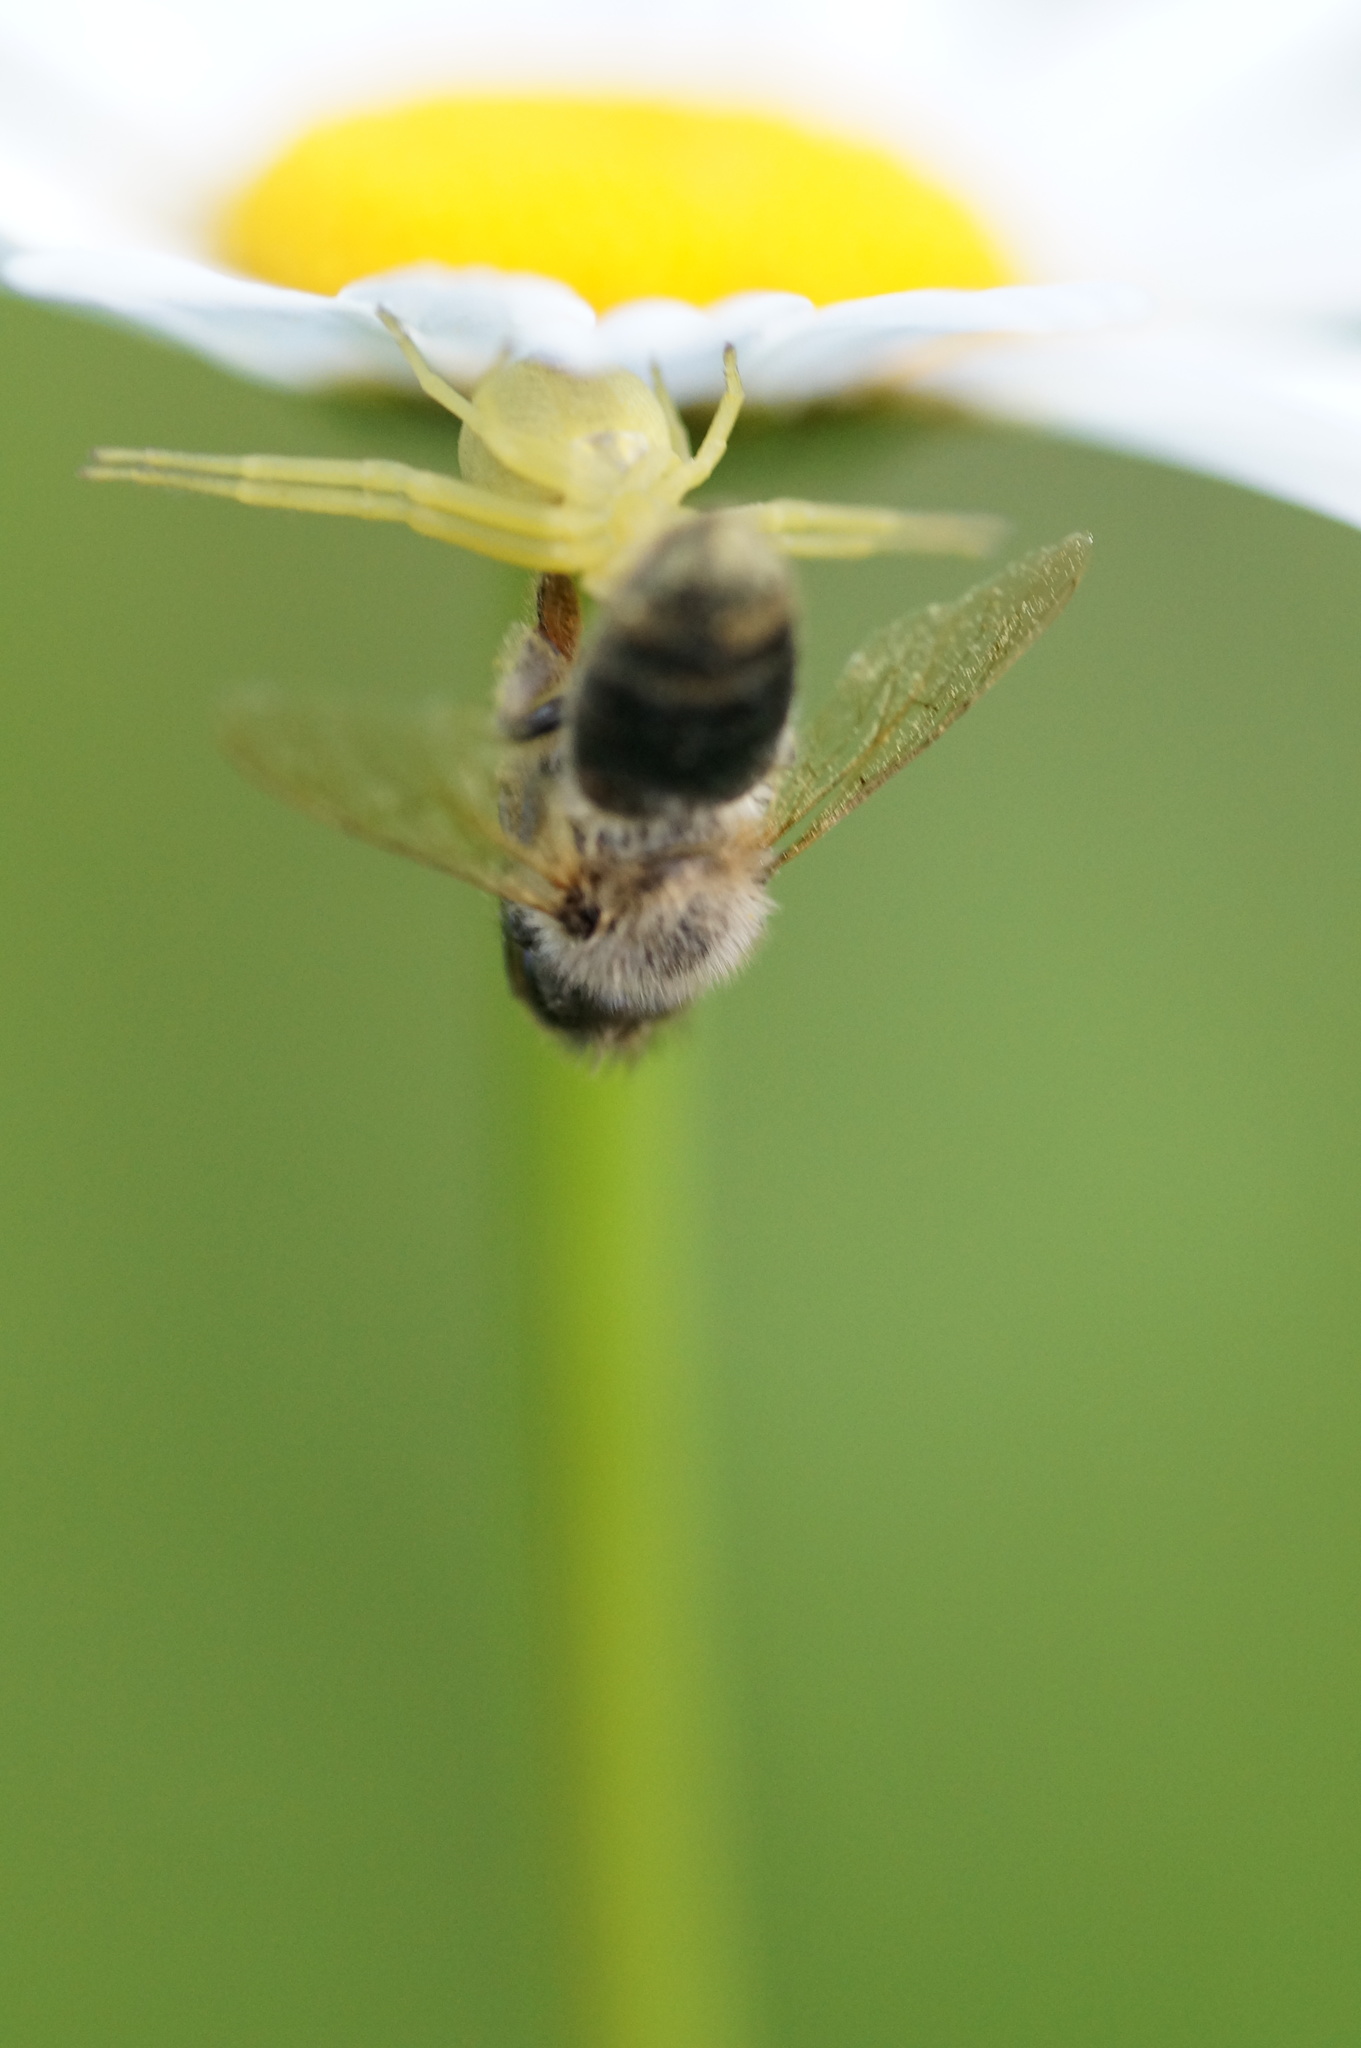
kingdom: Animalia
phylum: Arthropoda
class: Insecta
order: Hymenoptera
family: Apidae
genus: Apis
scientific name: Apis mellifera
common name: Honey bee
